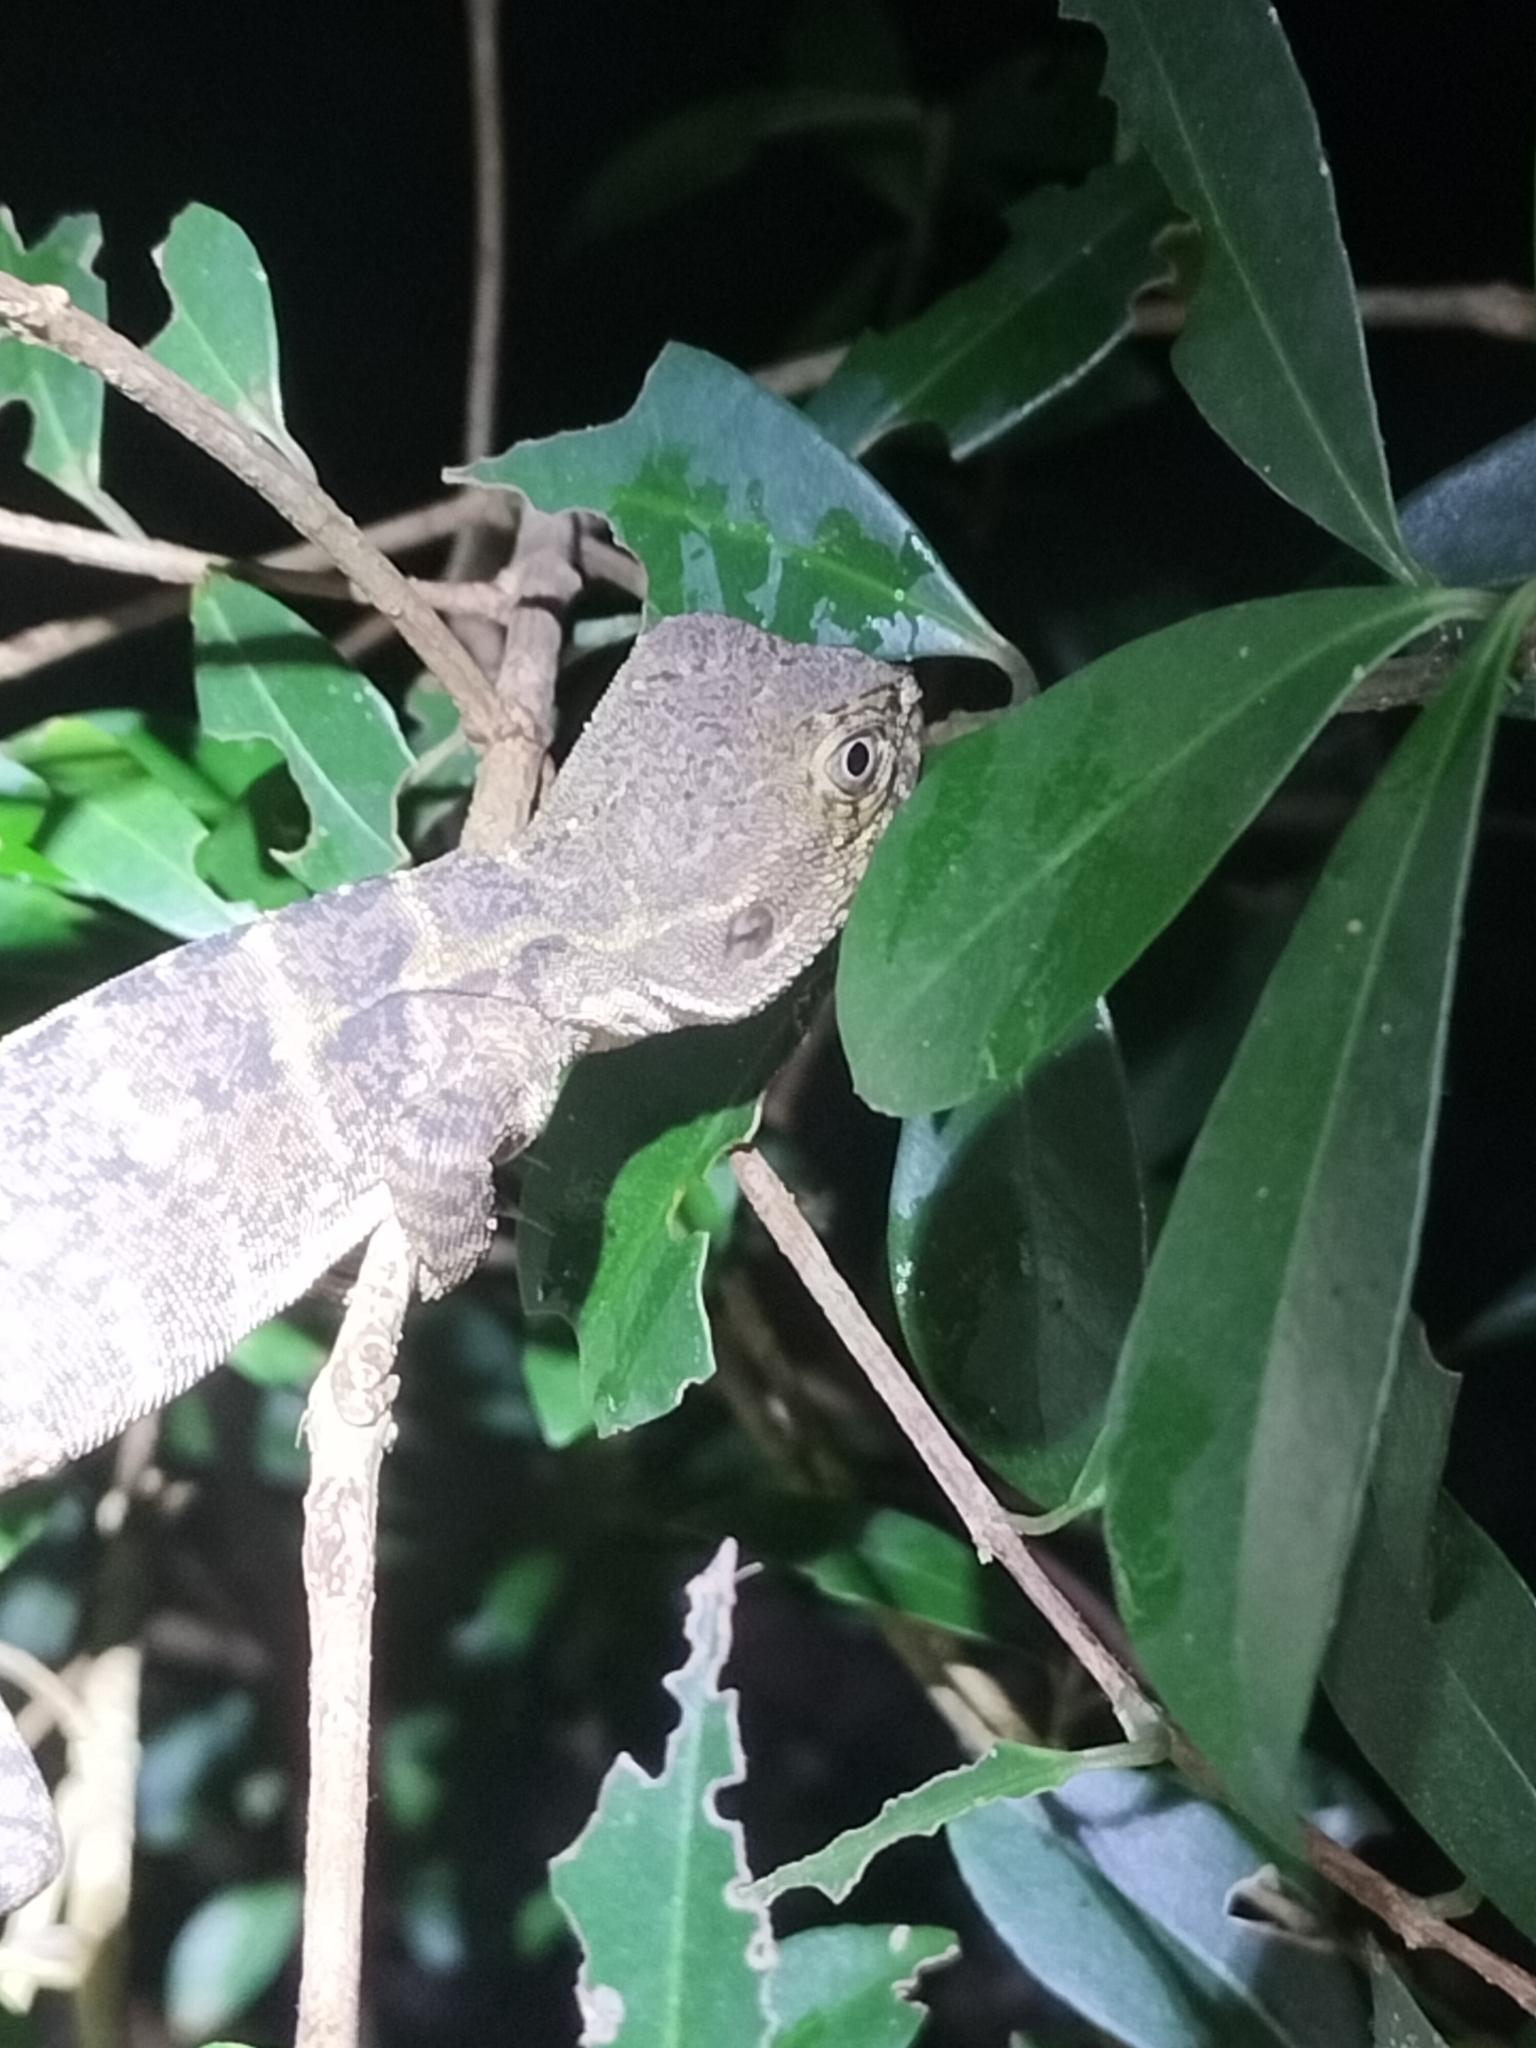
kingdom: Animalia
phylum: Chordata
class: Squamata
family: Agamidae
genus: Intellagama
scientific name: Intellagama lesueurii
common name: Eastern water dragon
